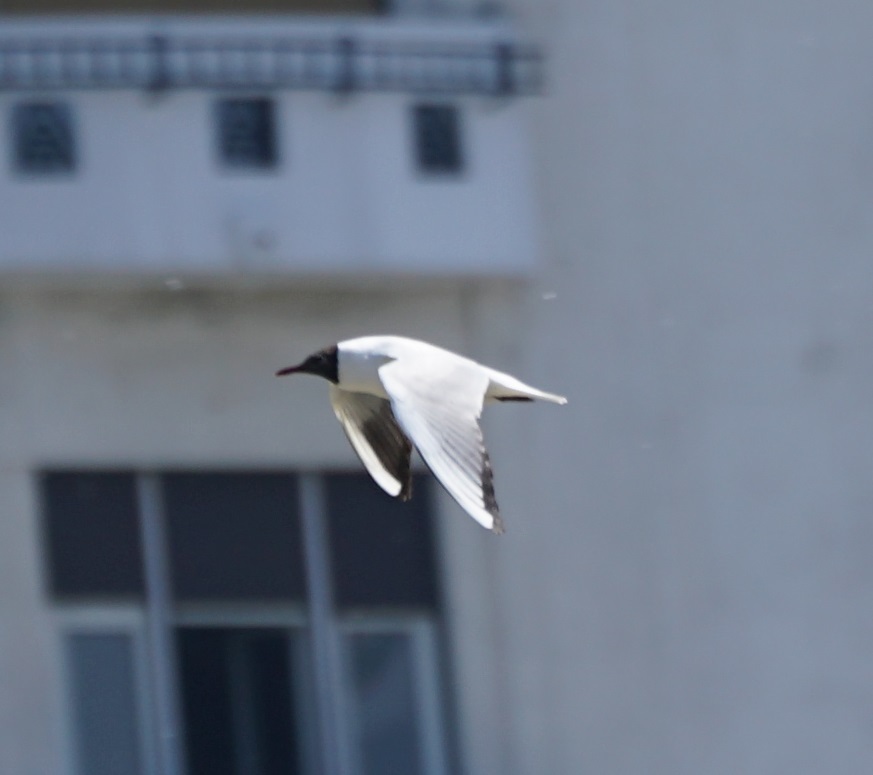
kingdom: Animalia
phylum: Chordata
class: Aves
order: Charadriiformes
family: Laridae
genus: Chroicocephalus
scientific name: Chroicocephalus ridibundus
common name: Black-headed gull
